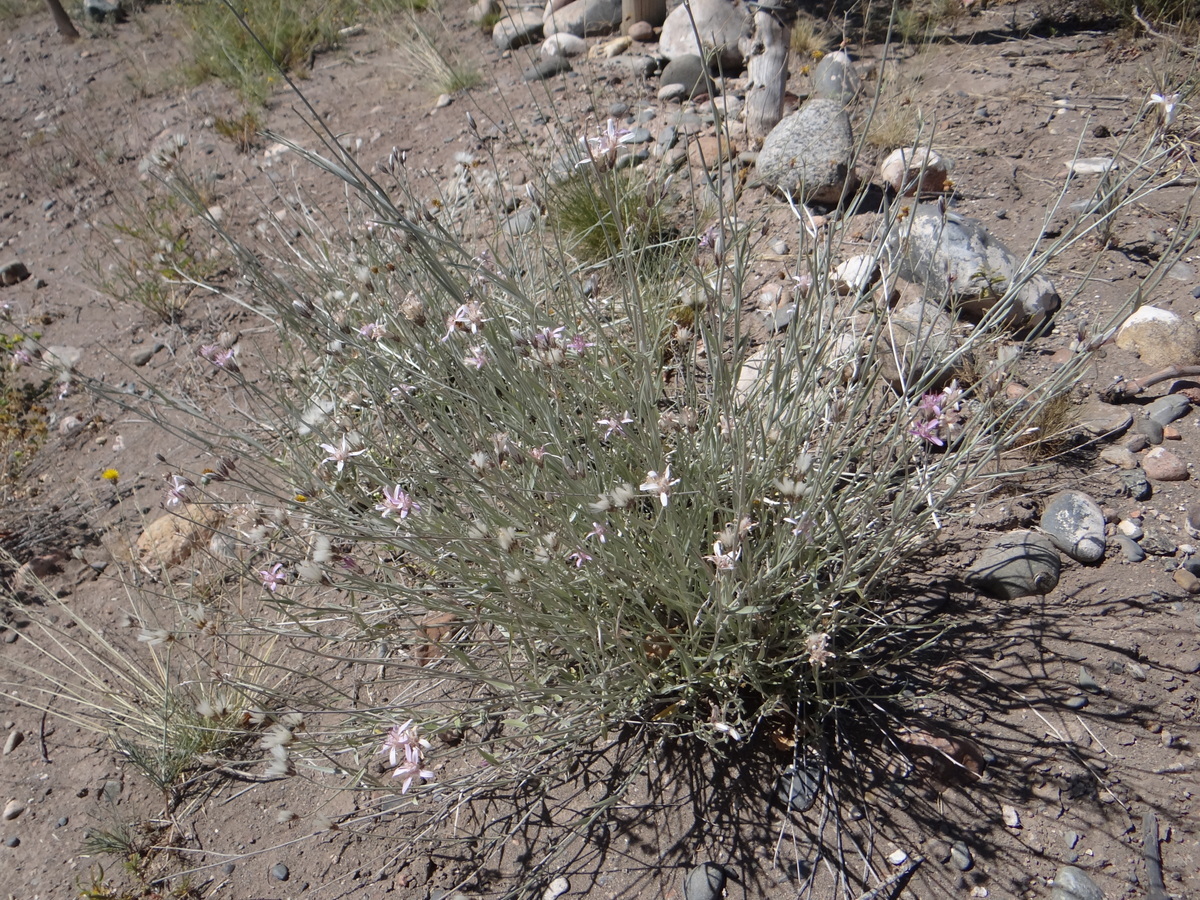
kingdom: Plantae
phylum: Tracheophyta
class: Magnoliopsida
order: Asterales
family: Asteraceae
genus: Hyalis
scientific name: Hyalis argentea
